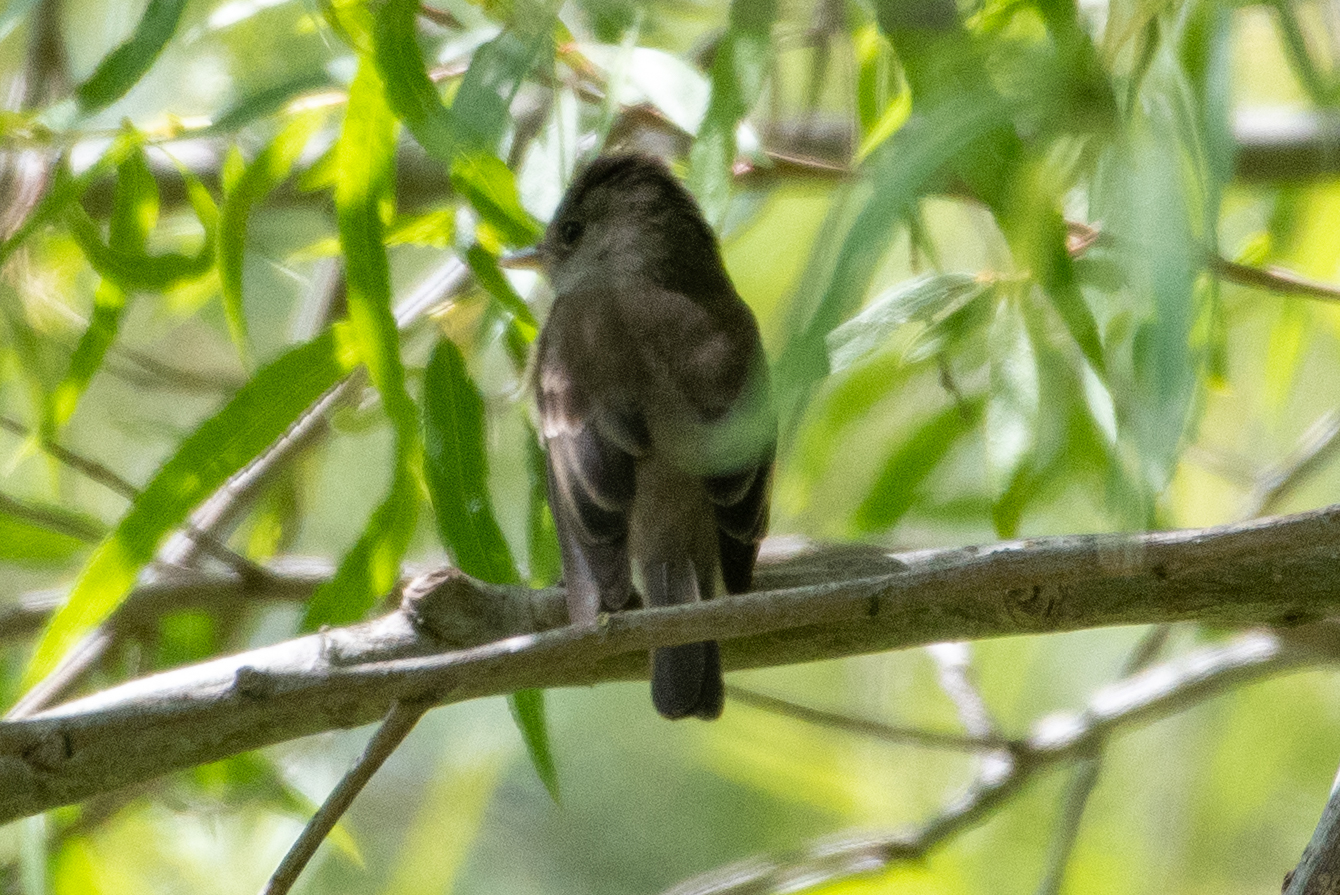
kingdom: Animalia
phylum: Chordata
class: Aves
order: Passeriformes
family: Tyrannidae
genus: Empidonax
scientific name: Empidonax traillii
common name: Willow flycatcher
